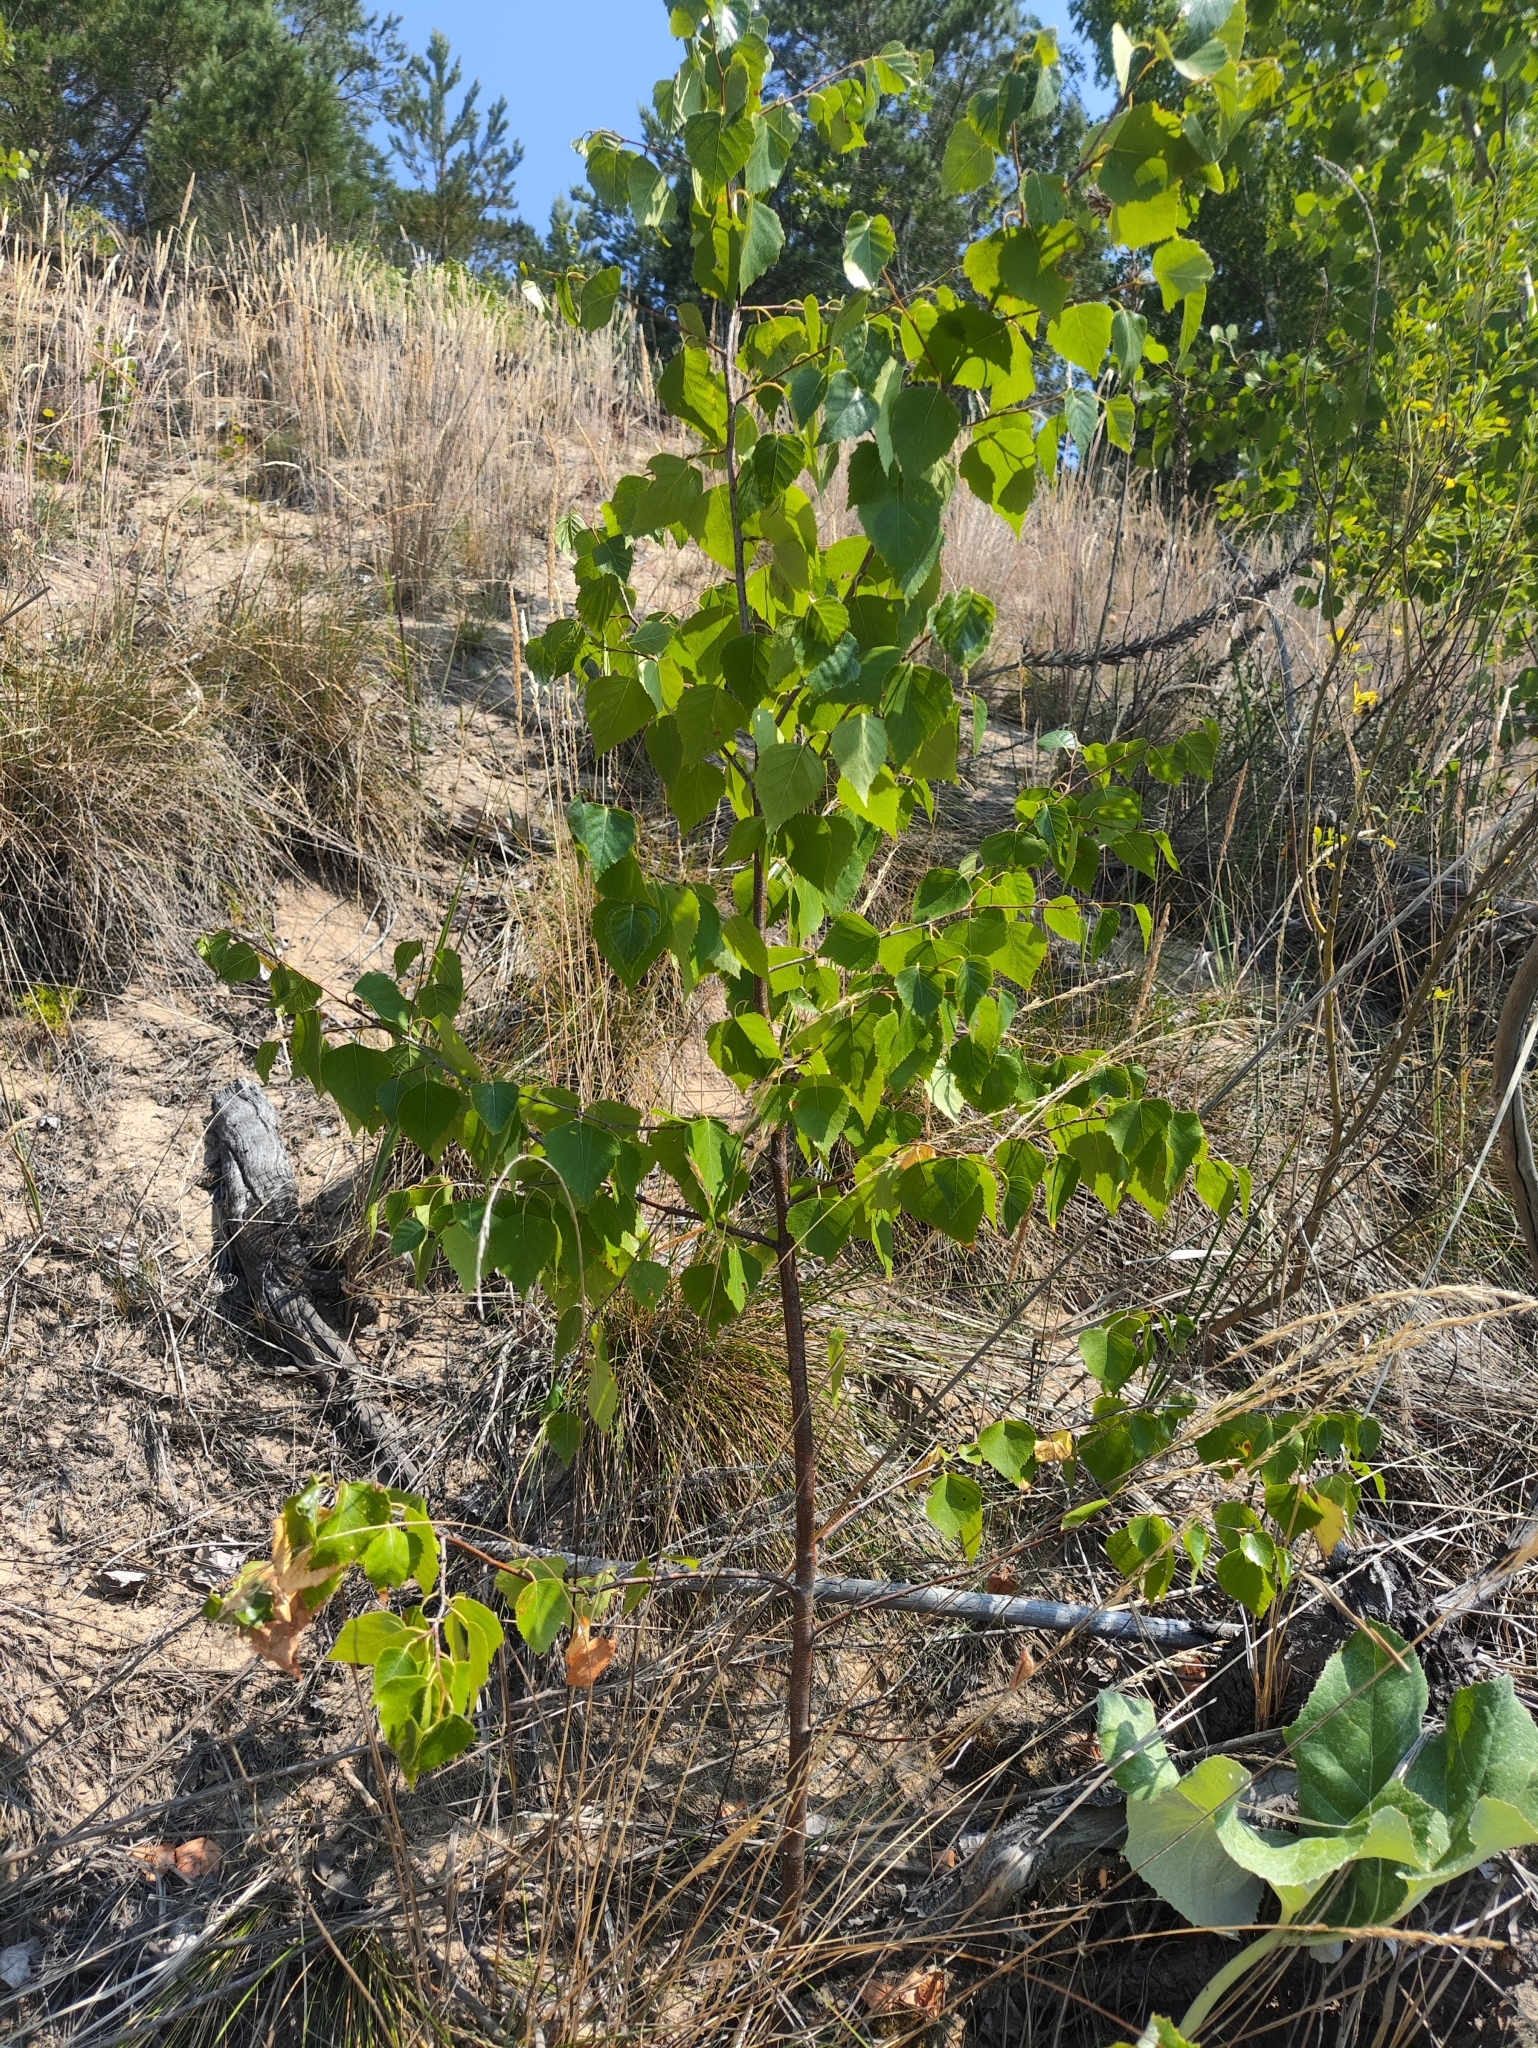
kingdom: Plantae
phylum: Tracheophyta
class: Magnoliopsida
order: Fagales
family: Betulaceae
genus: Betula
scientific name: Betula pendula
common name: Silver birch
